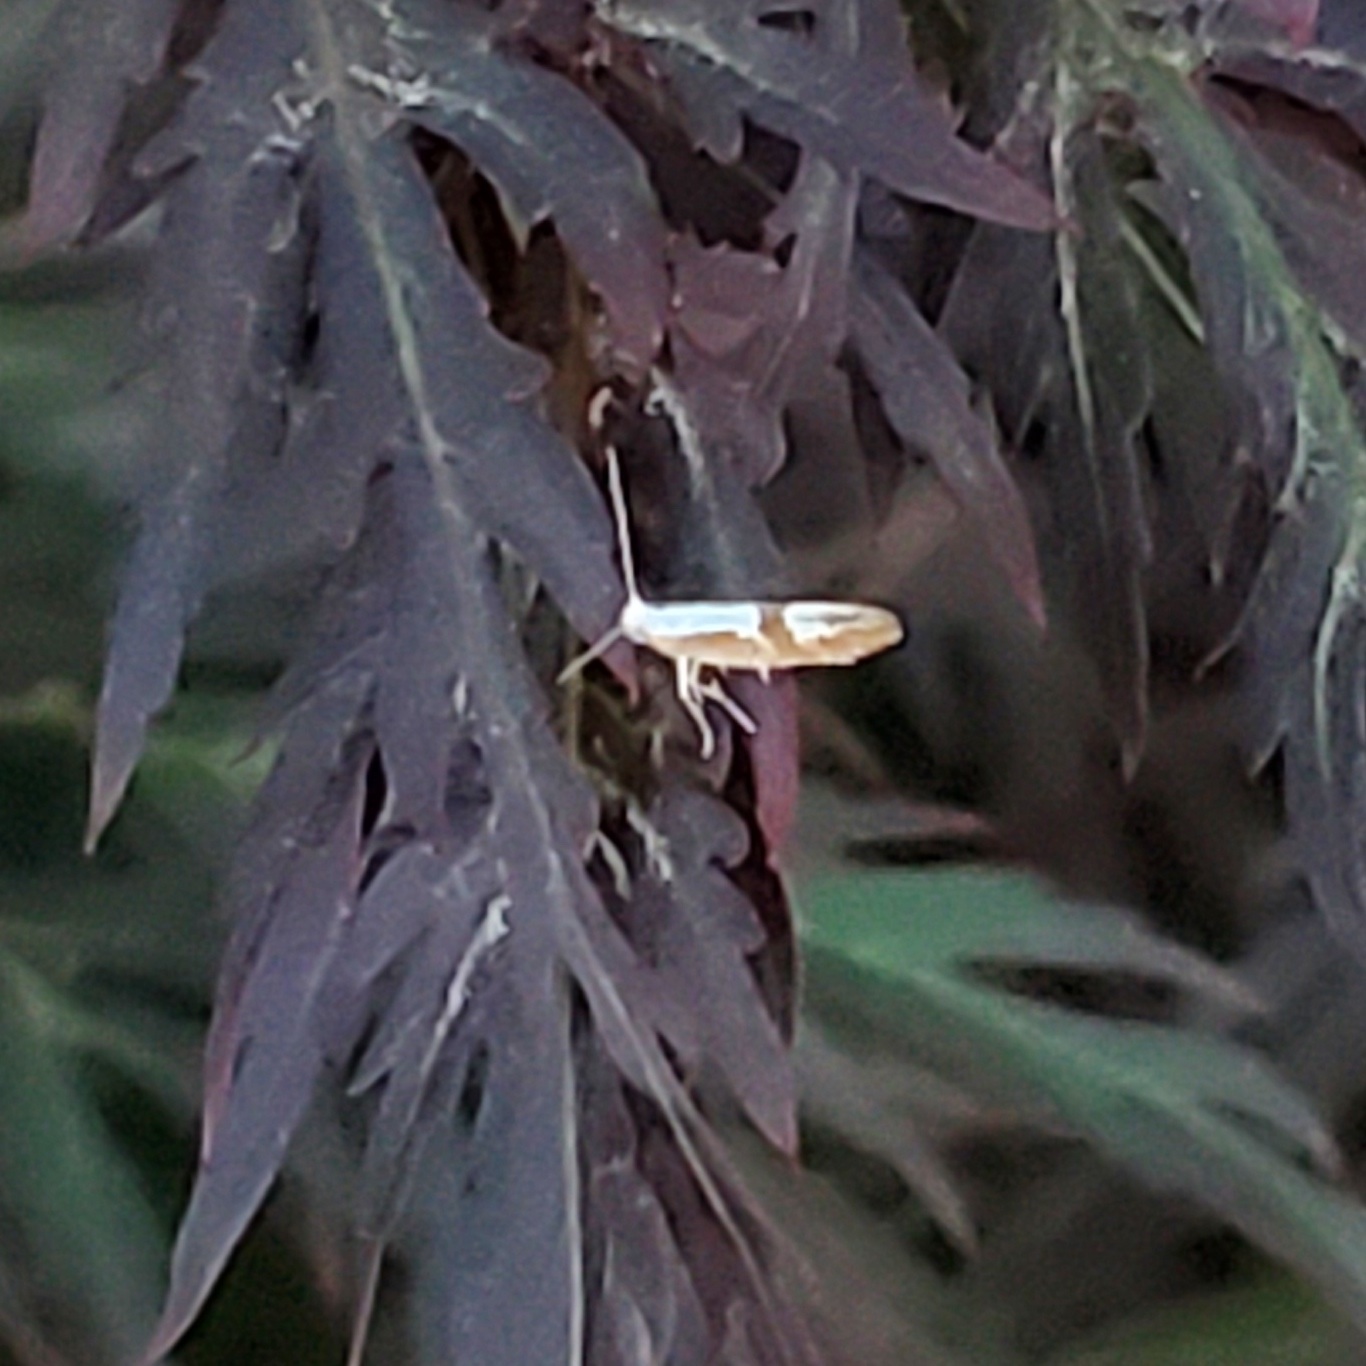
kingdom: Animalia
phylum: Arthropoda
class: Insecta
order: Lepidoptera
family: Argyresthiidae
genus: Argyresthia
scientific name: Argyresthia pruniella
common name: Cherry fruit moth
